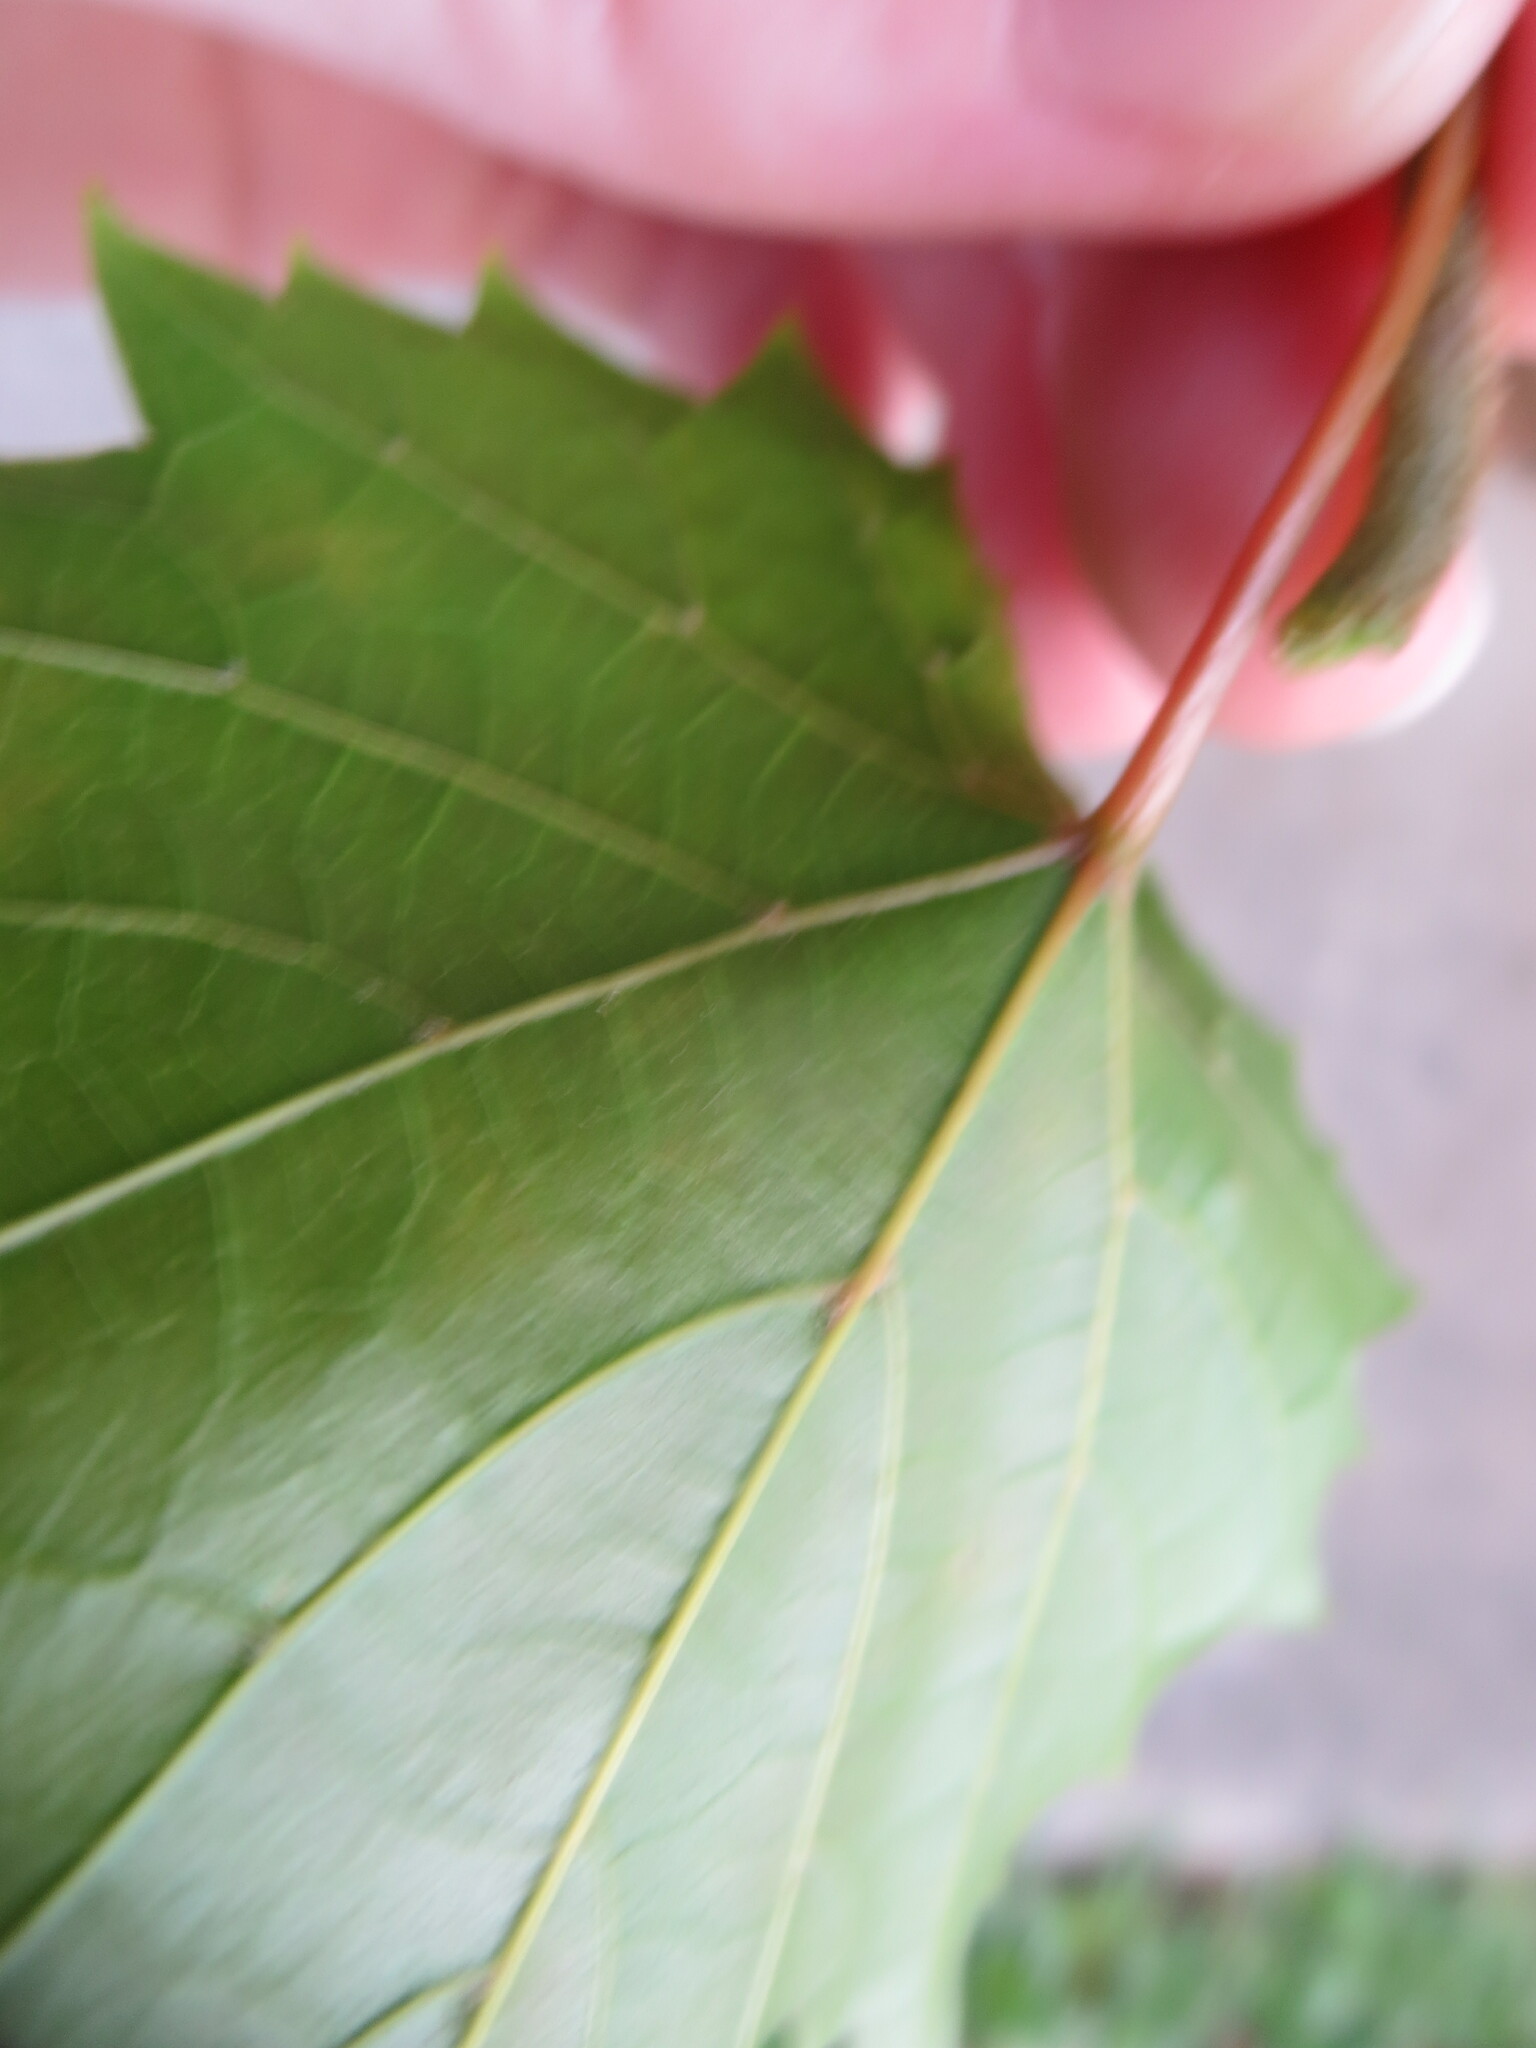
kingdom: Plantae
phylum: Tracheophyta
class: Magnoliopsida
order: Vitales
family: Vitaceae
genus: Vitis
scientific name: Vitis rotundifolia
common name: Muscadine grape
